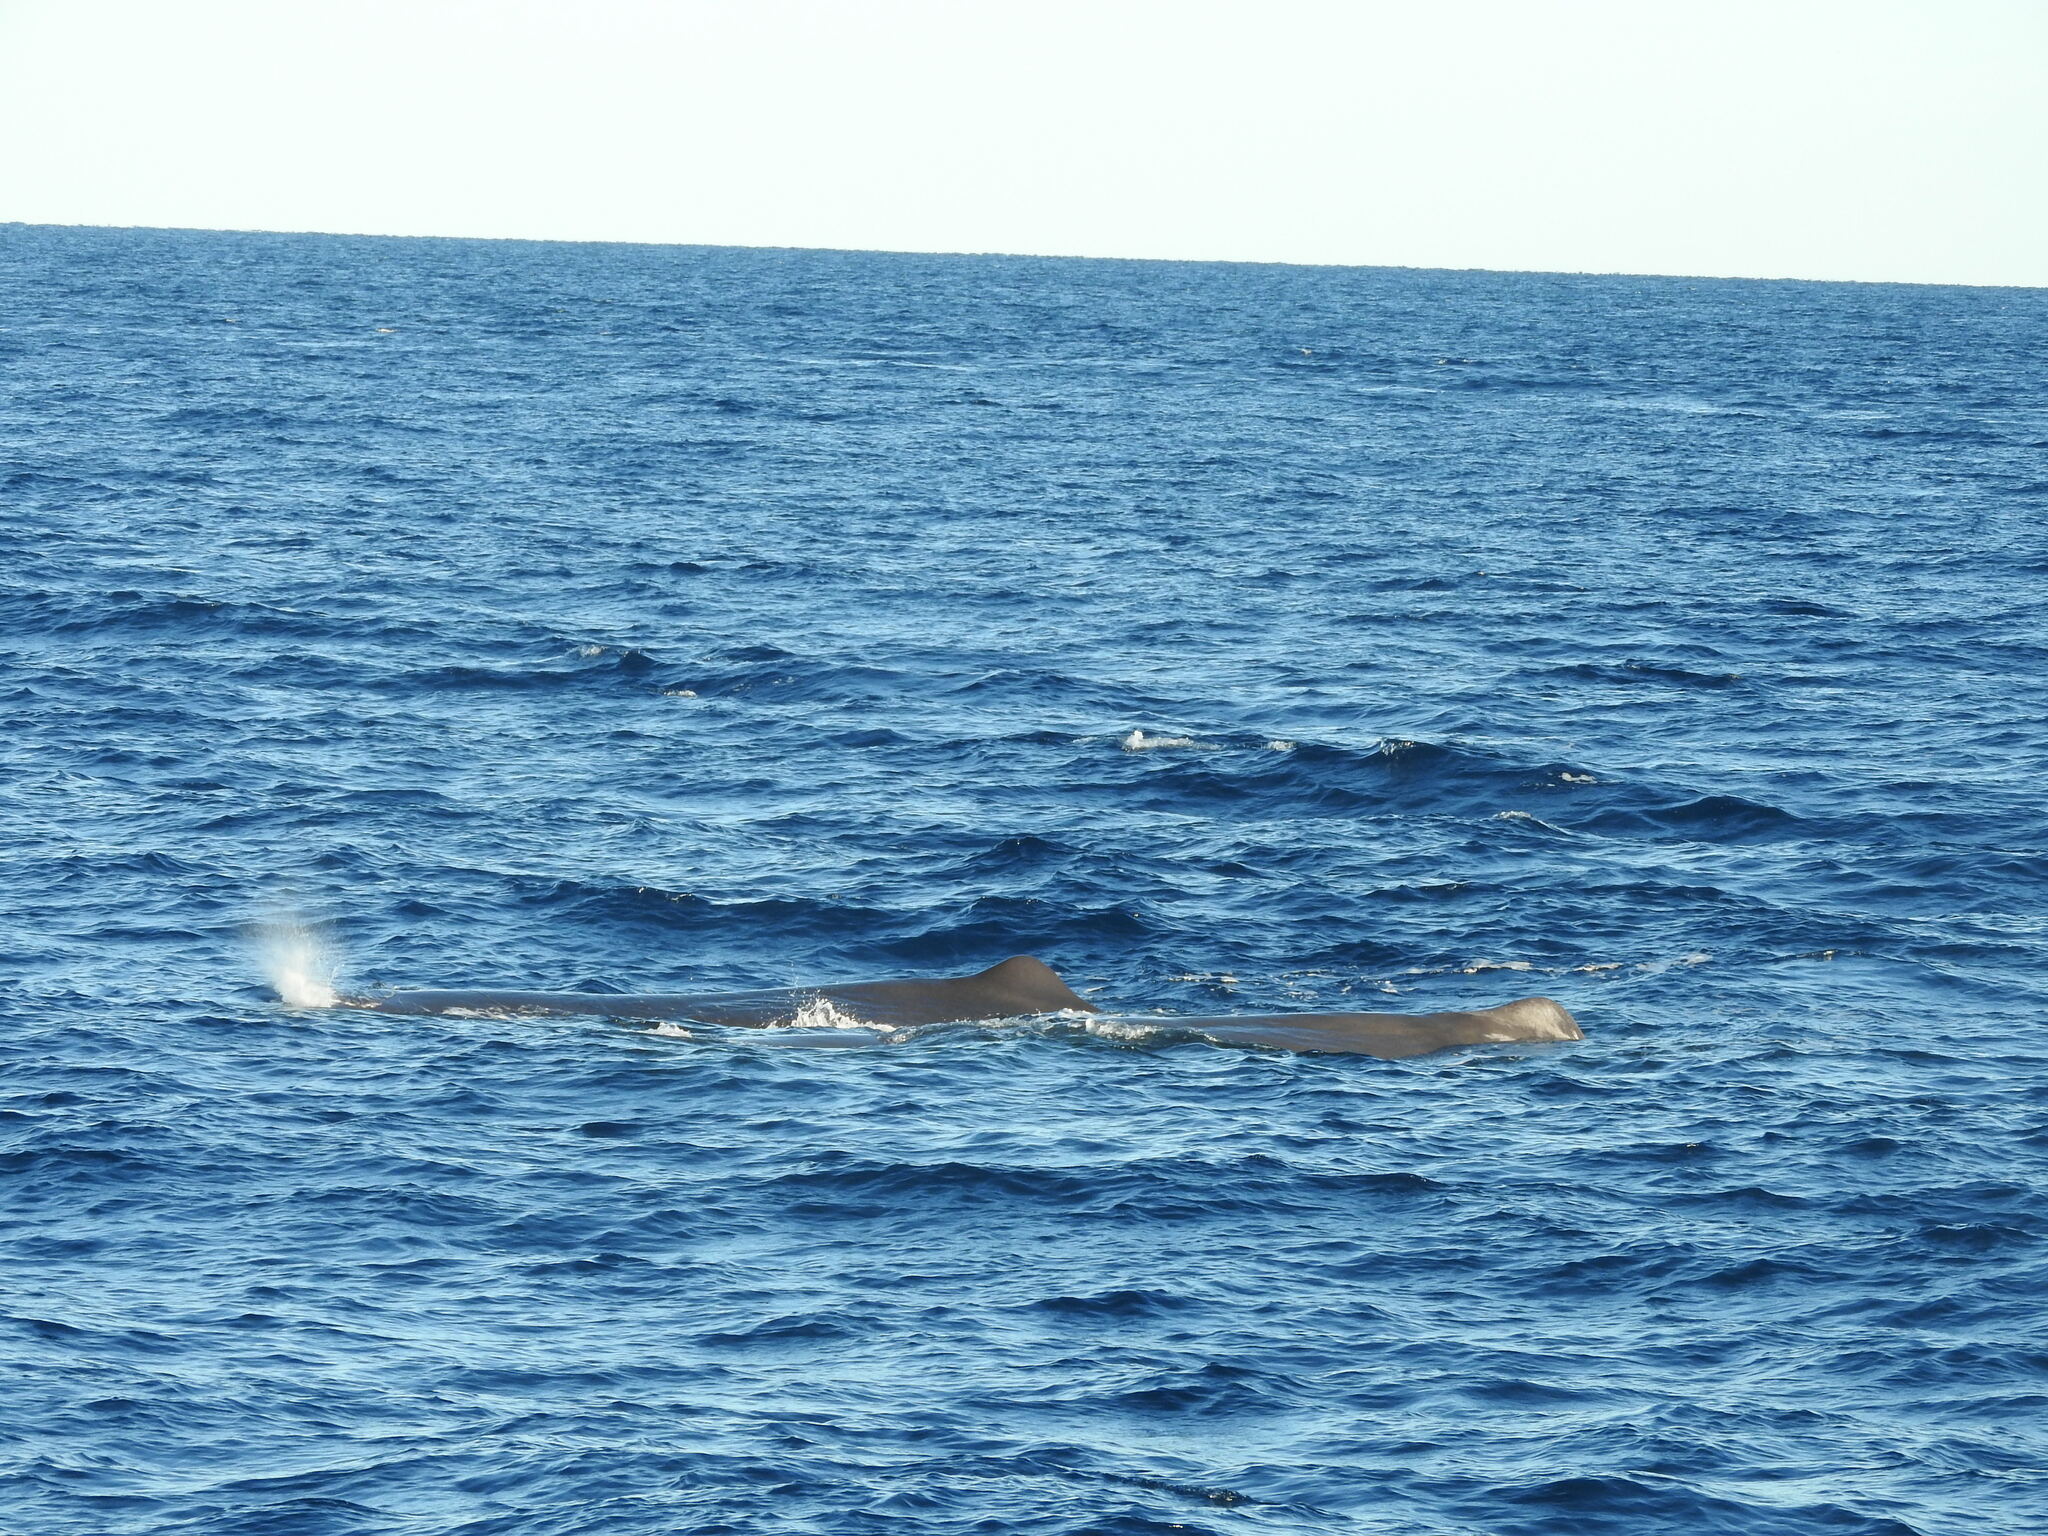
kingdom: Animalia
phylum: Chordata
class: Mammalia
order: Cetacea
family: Physeteridae
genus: Physeter
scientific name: Physeter macrocephalus
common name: Sperm whale
